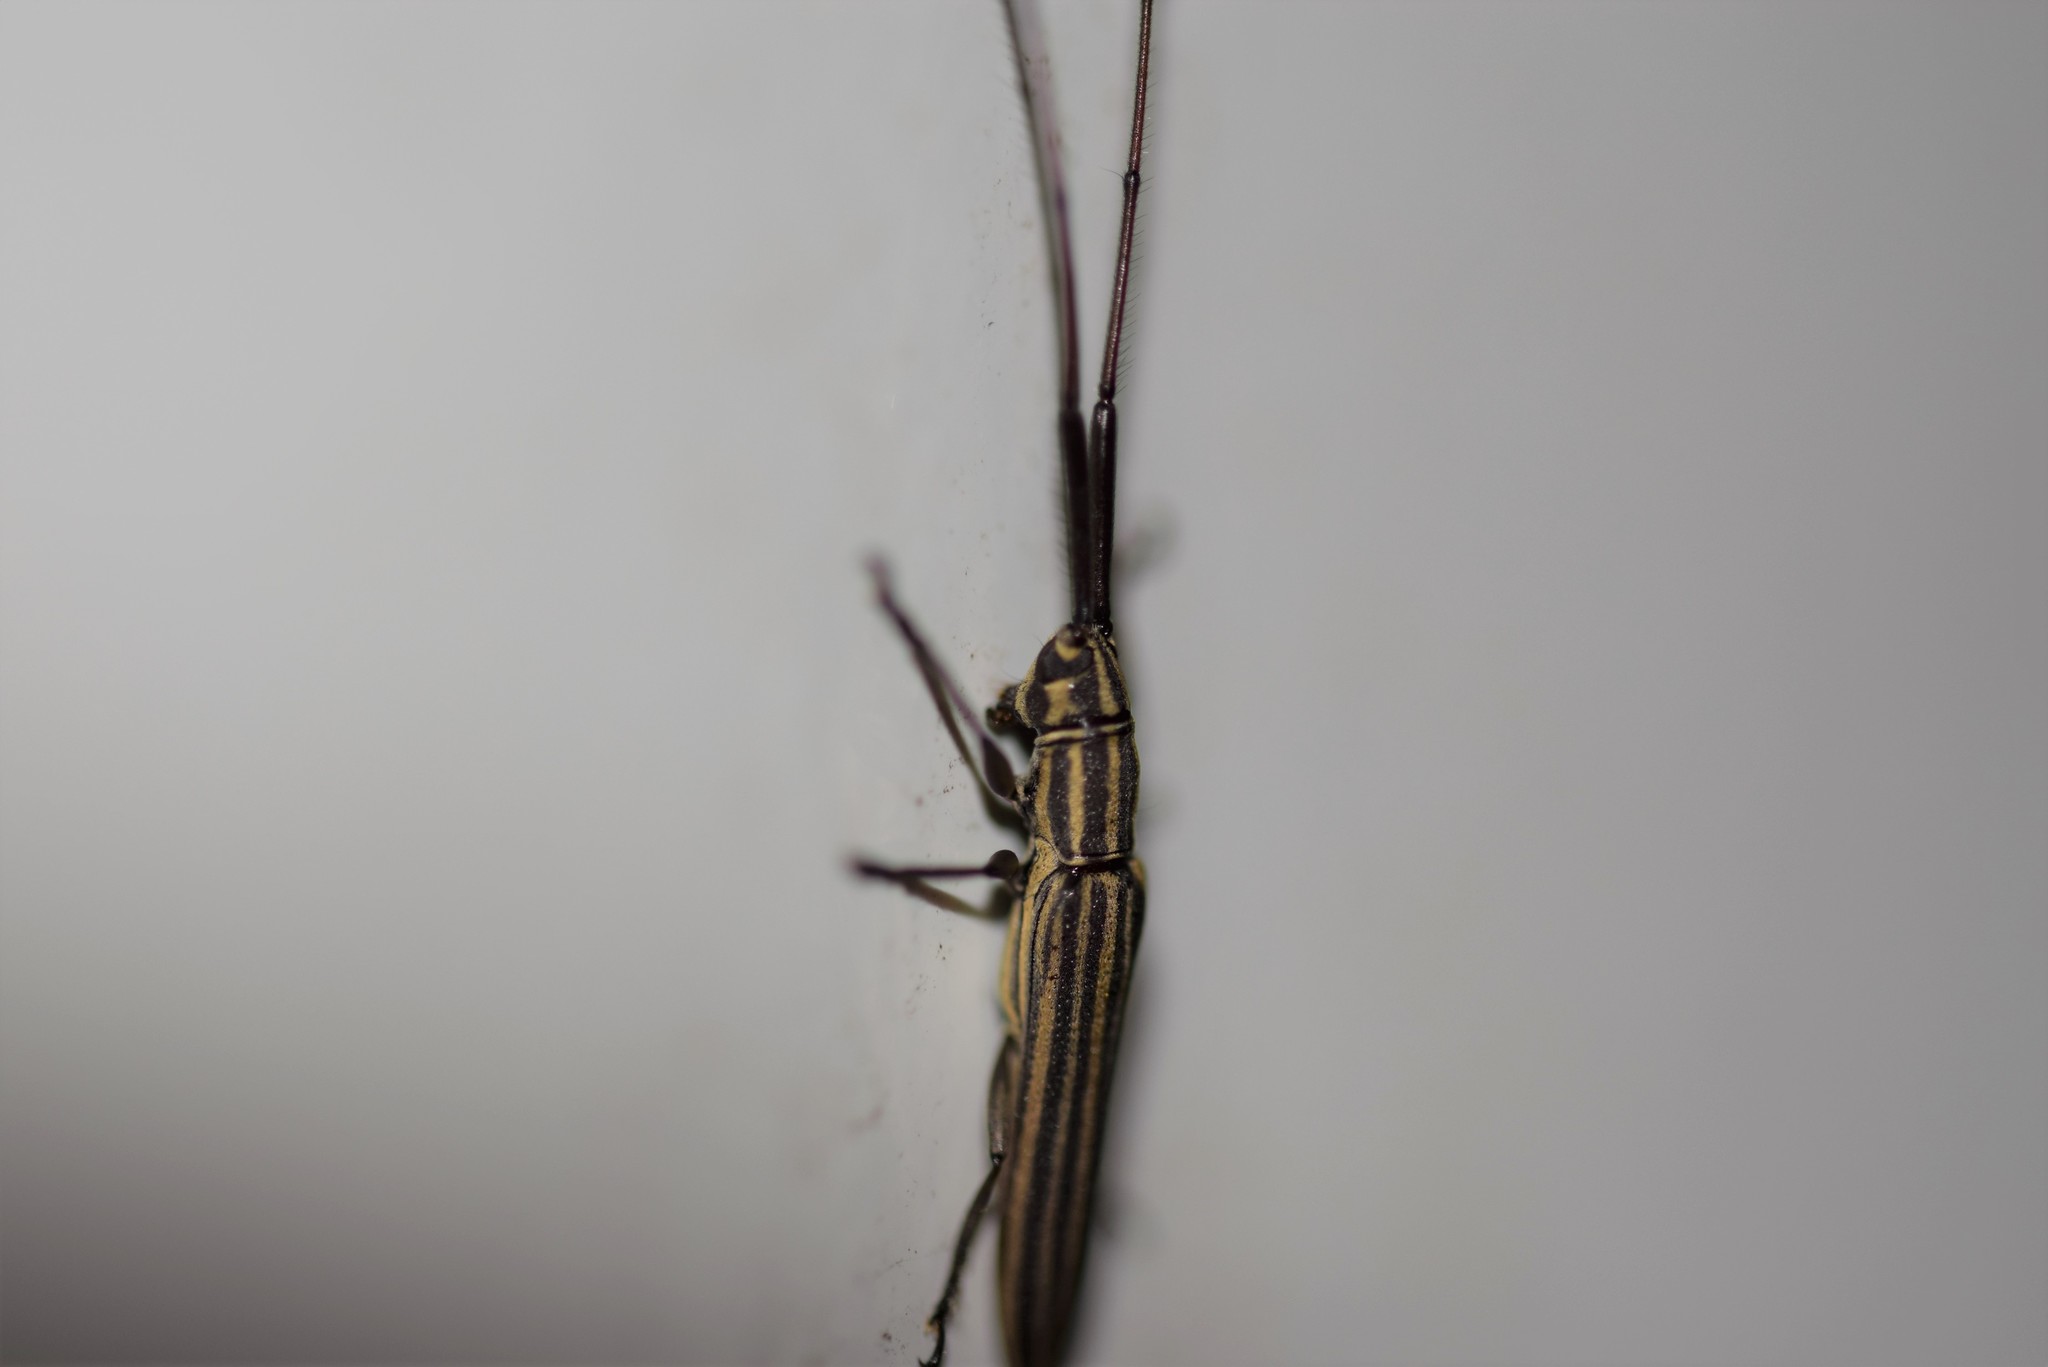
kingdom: Animalia
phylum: Arthropoda
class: Insecta
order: Coleoptera
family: Cerambycidae
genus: Hippopsis
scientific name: Hippopsis
